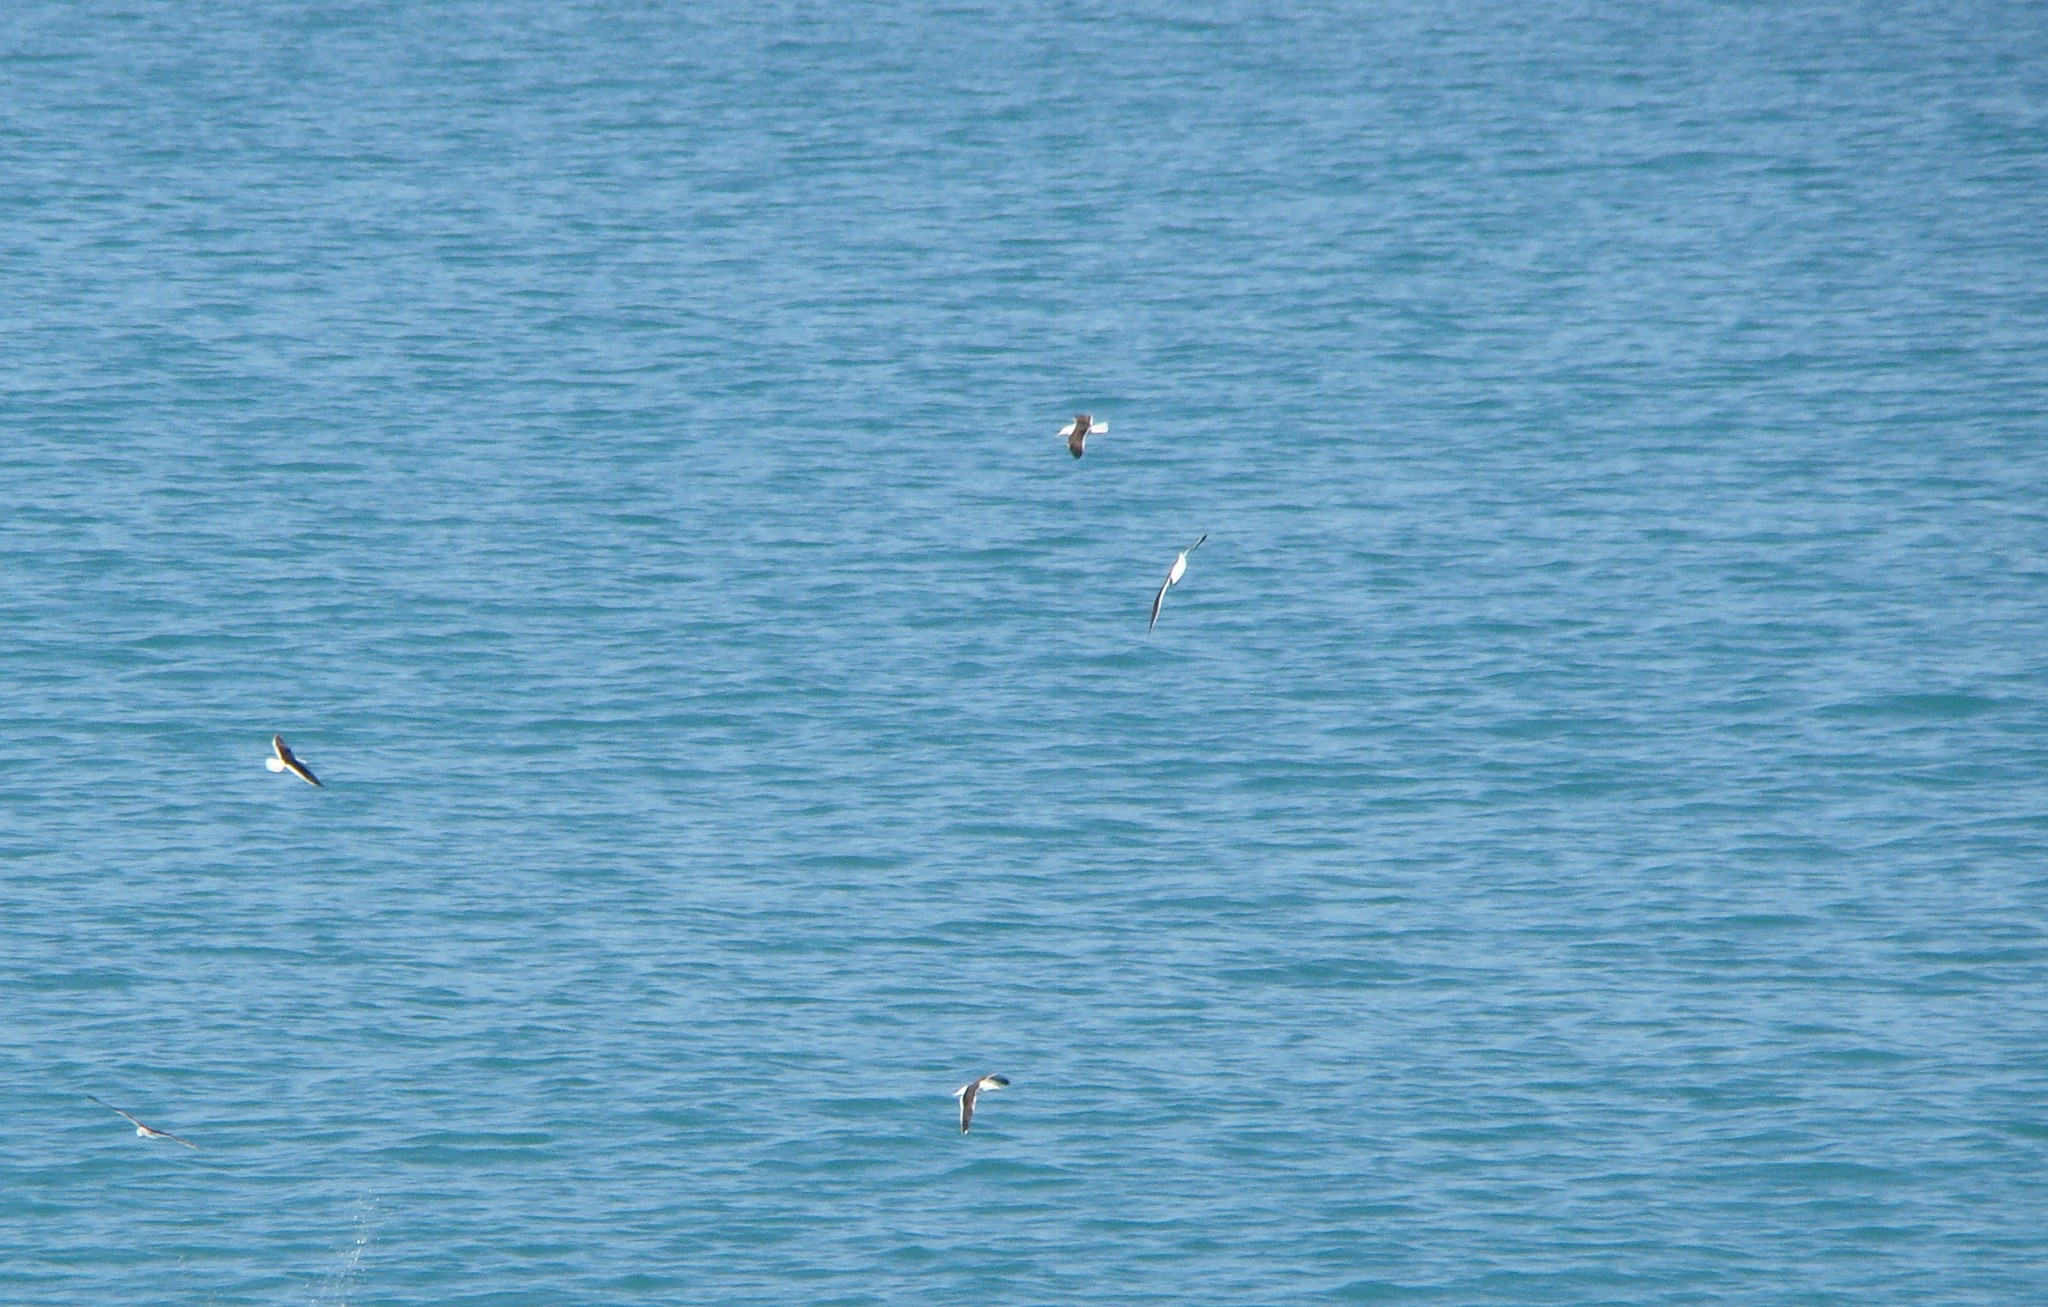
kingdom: Animalia
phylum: Chordata
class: Aves
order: Charadriiformes
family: Laridae
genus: Larus
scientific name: Larus dominicanus
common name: Kelp gull
